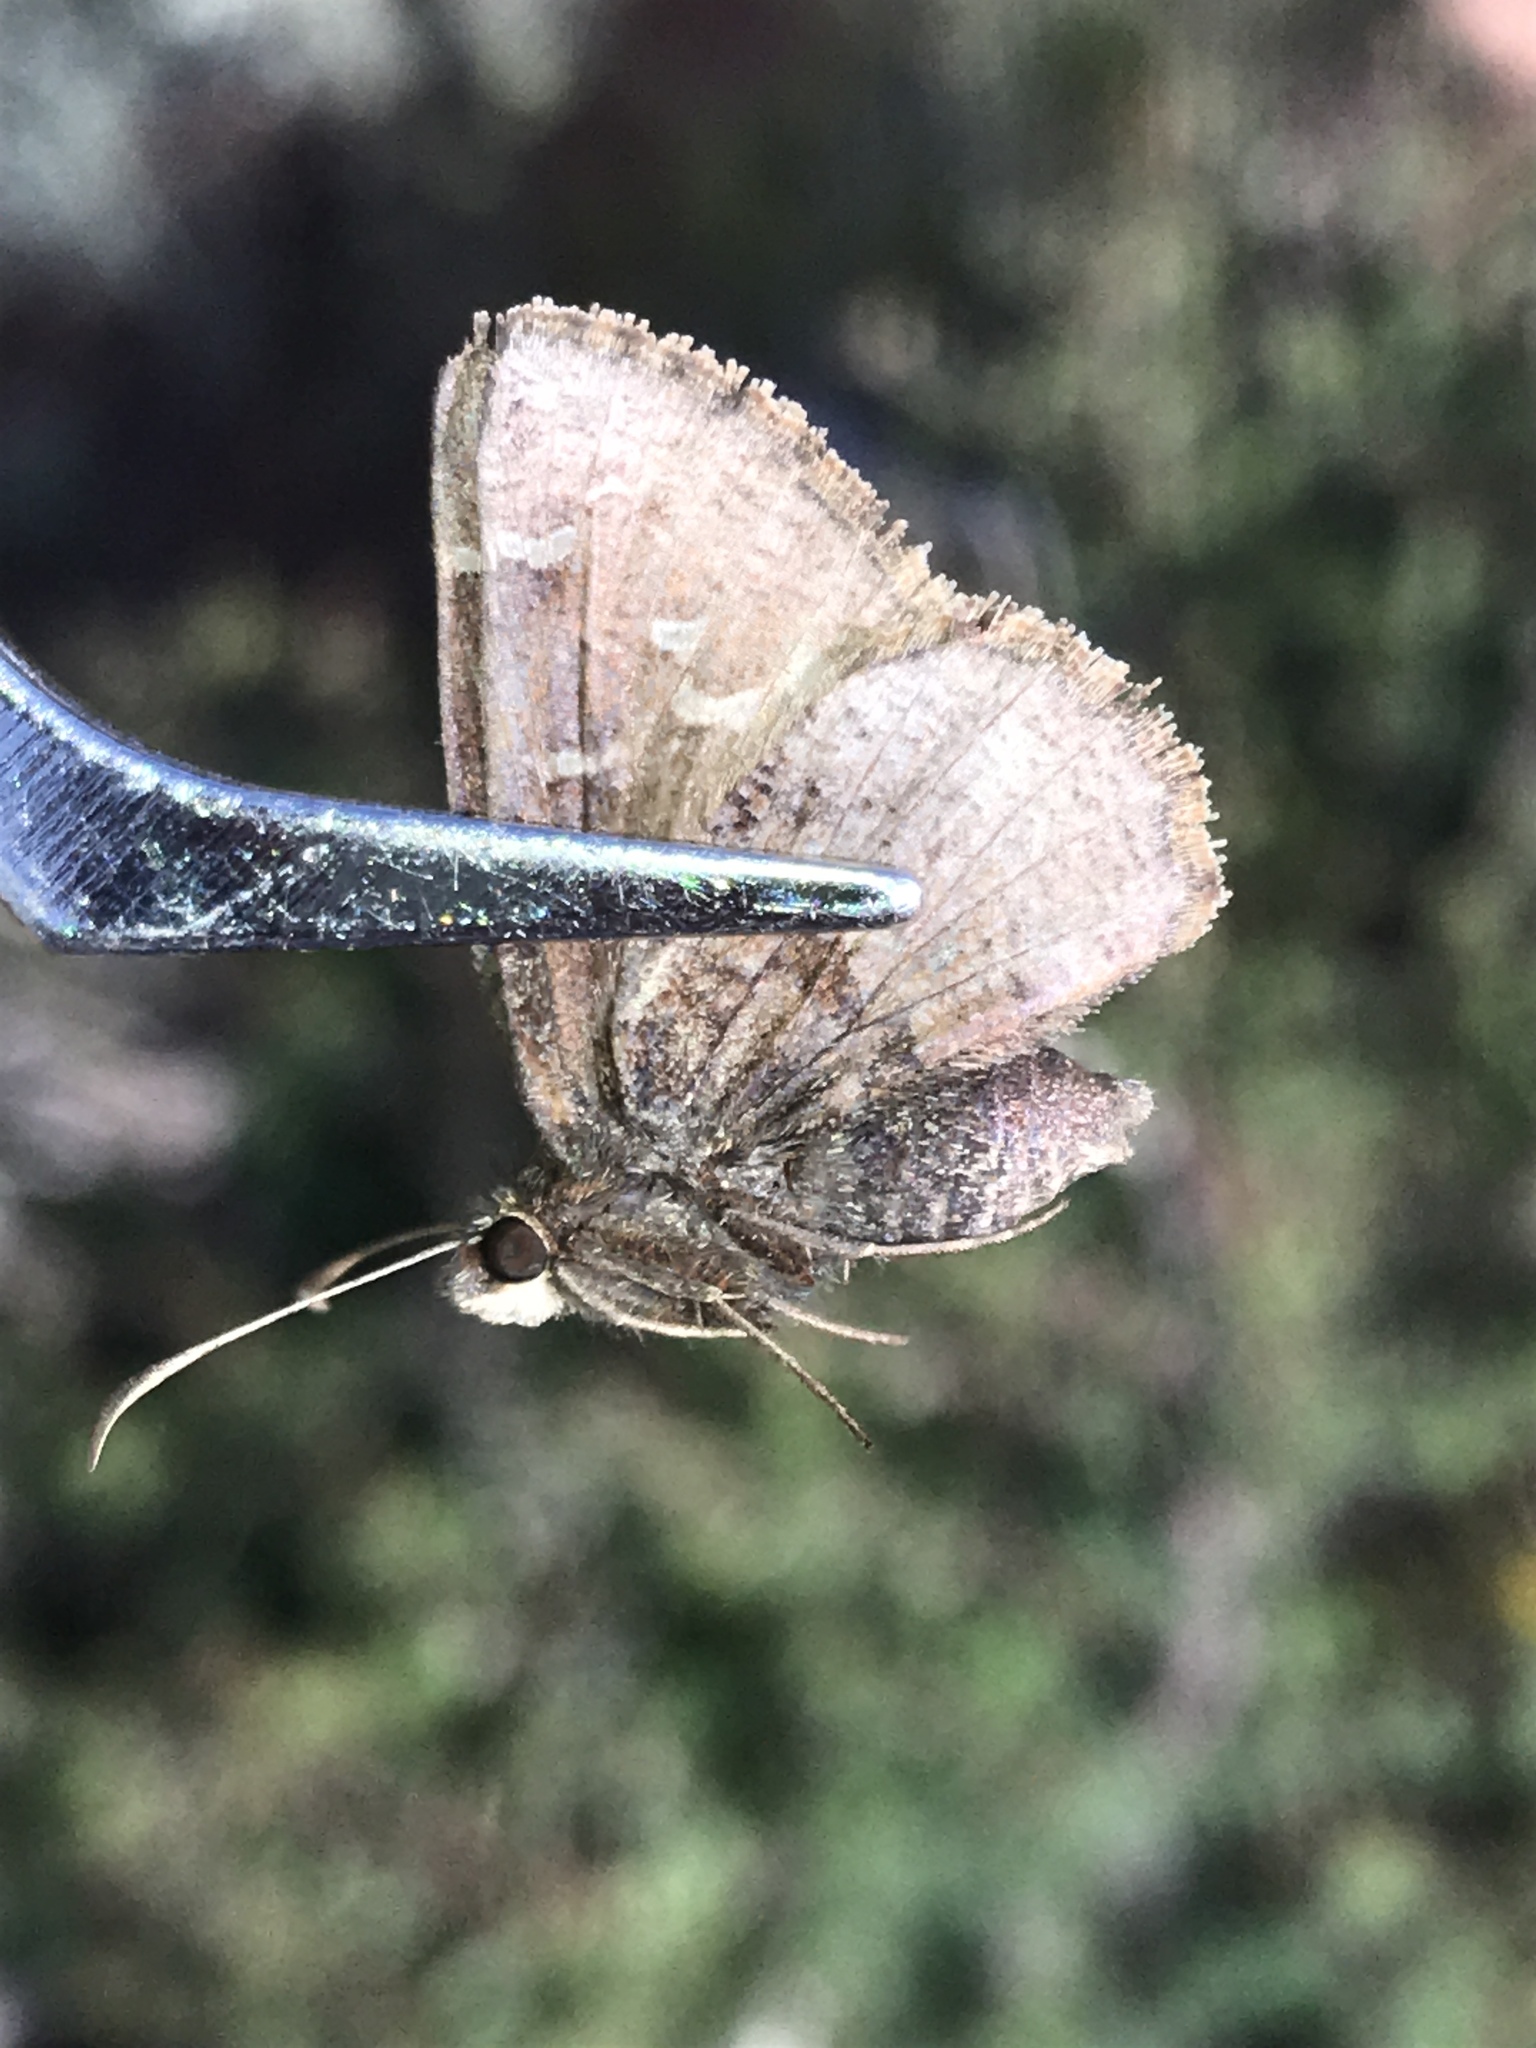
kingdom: Animalia
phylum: Arthropoda
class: Insecta
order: Lepidoptera
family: Hesperiidae
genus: Thorybes
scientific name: Thorybes mexicana
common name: Mexican cloudywing
